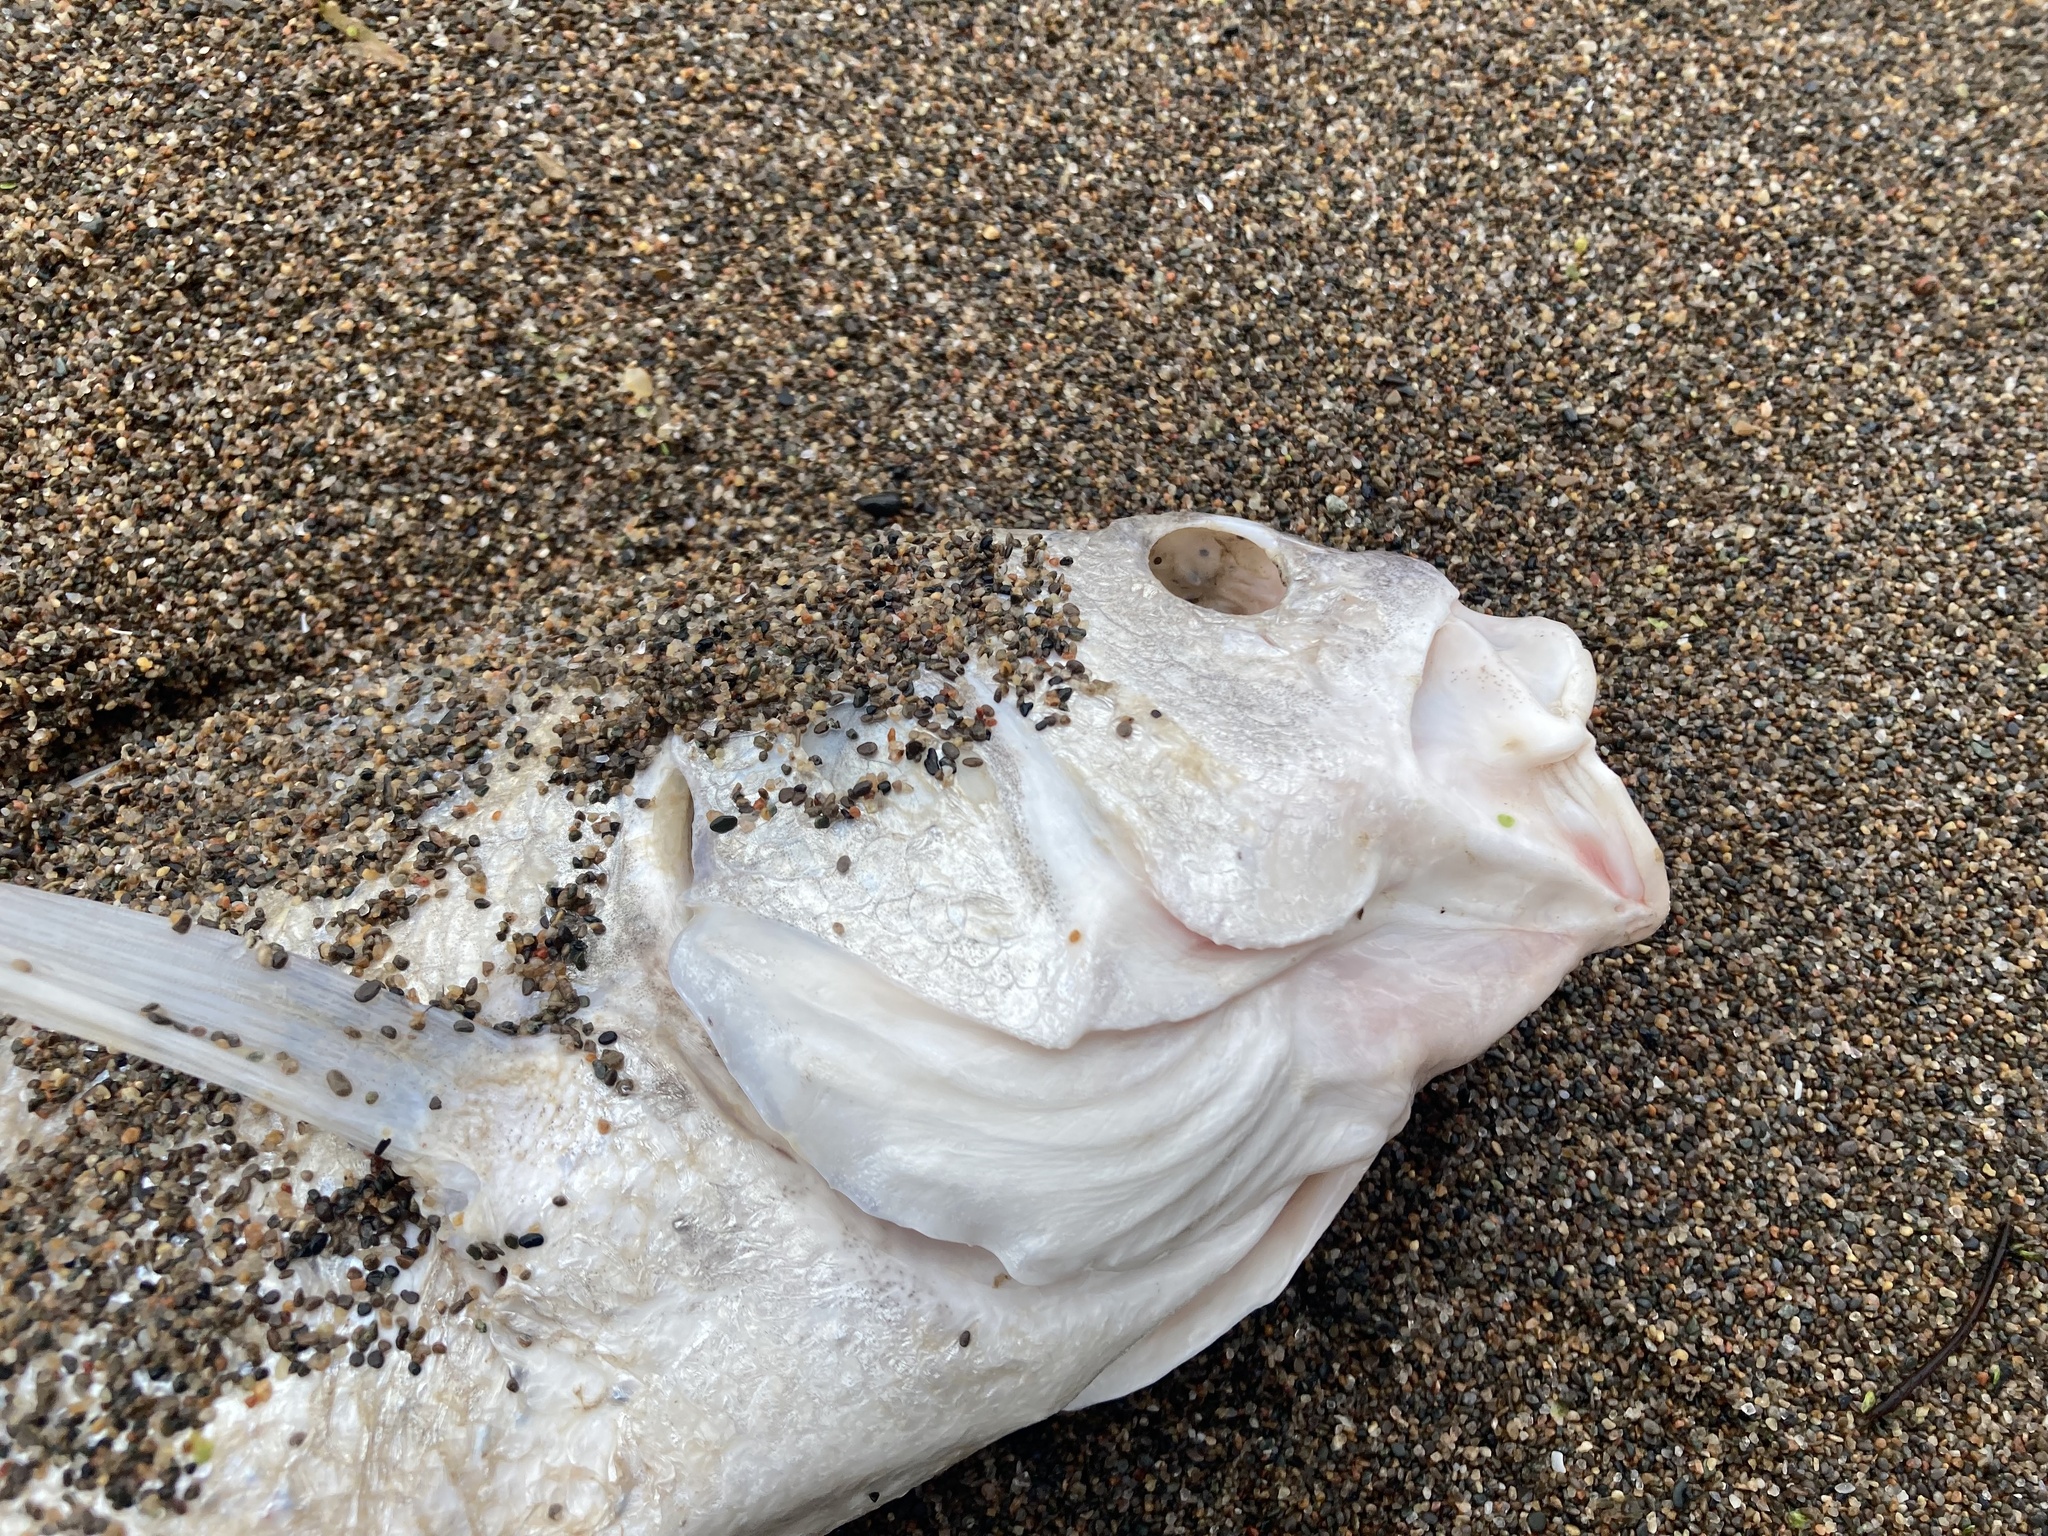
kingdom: Animalia
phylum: Chordata
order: Perciformes
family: Sciaenidae
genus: Aplodinotus
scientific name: Aplodinotus grunniens
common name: Freshwater drum
